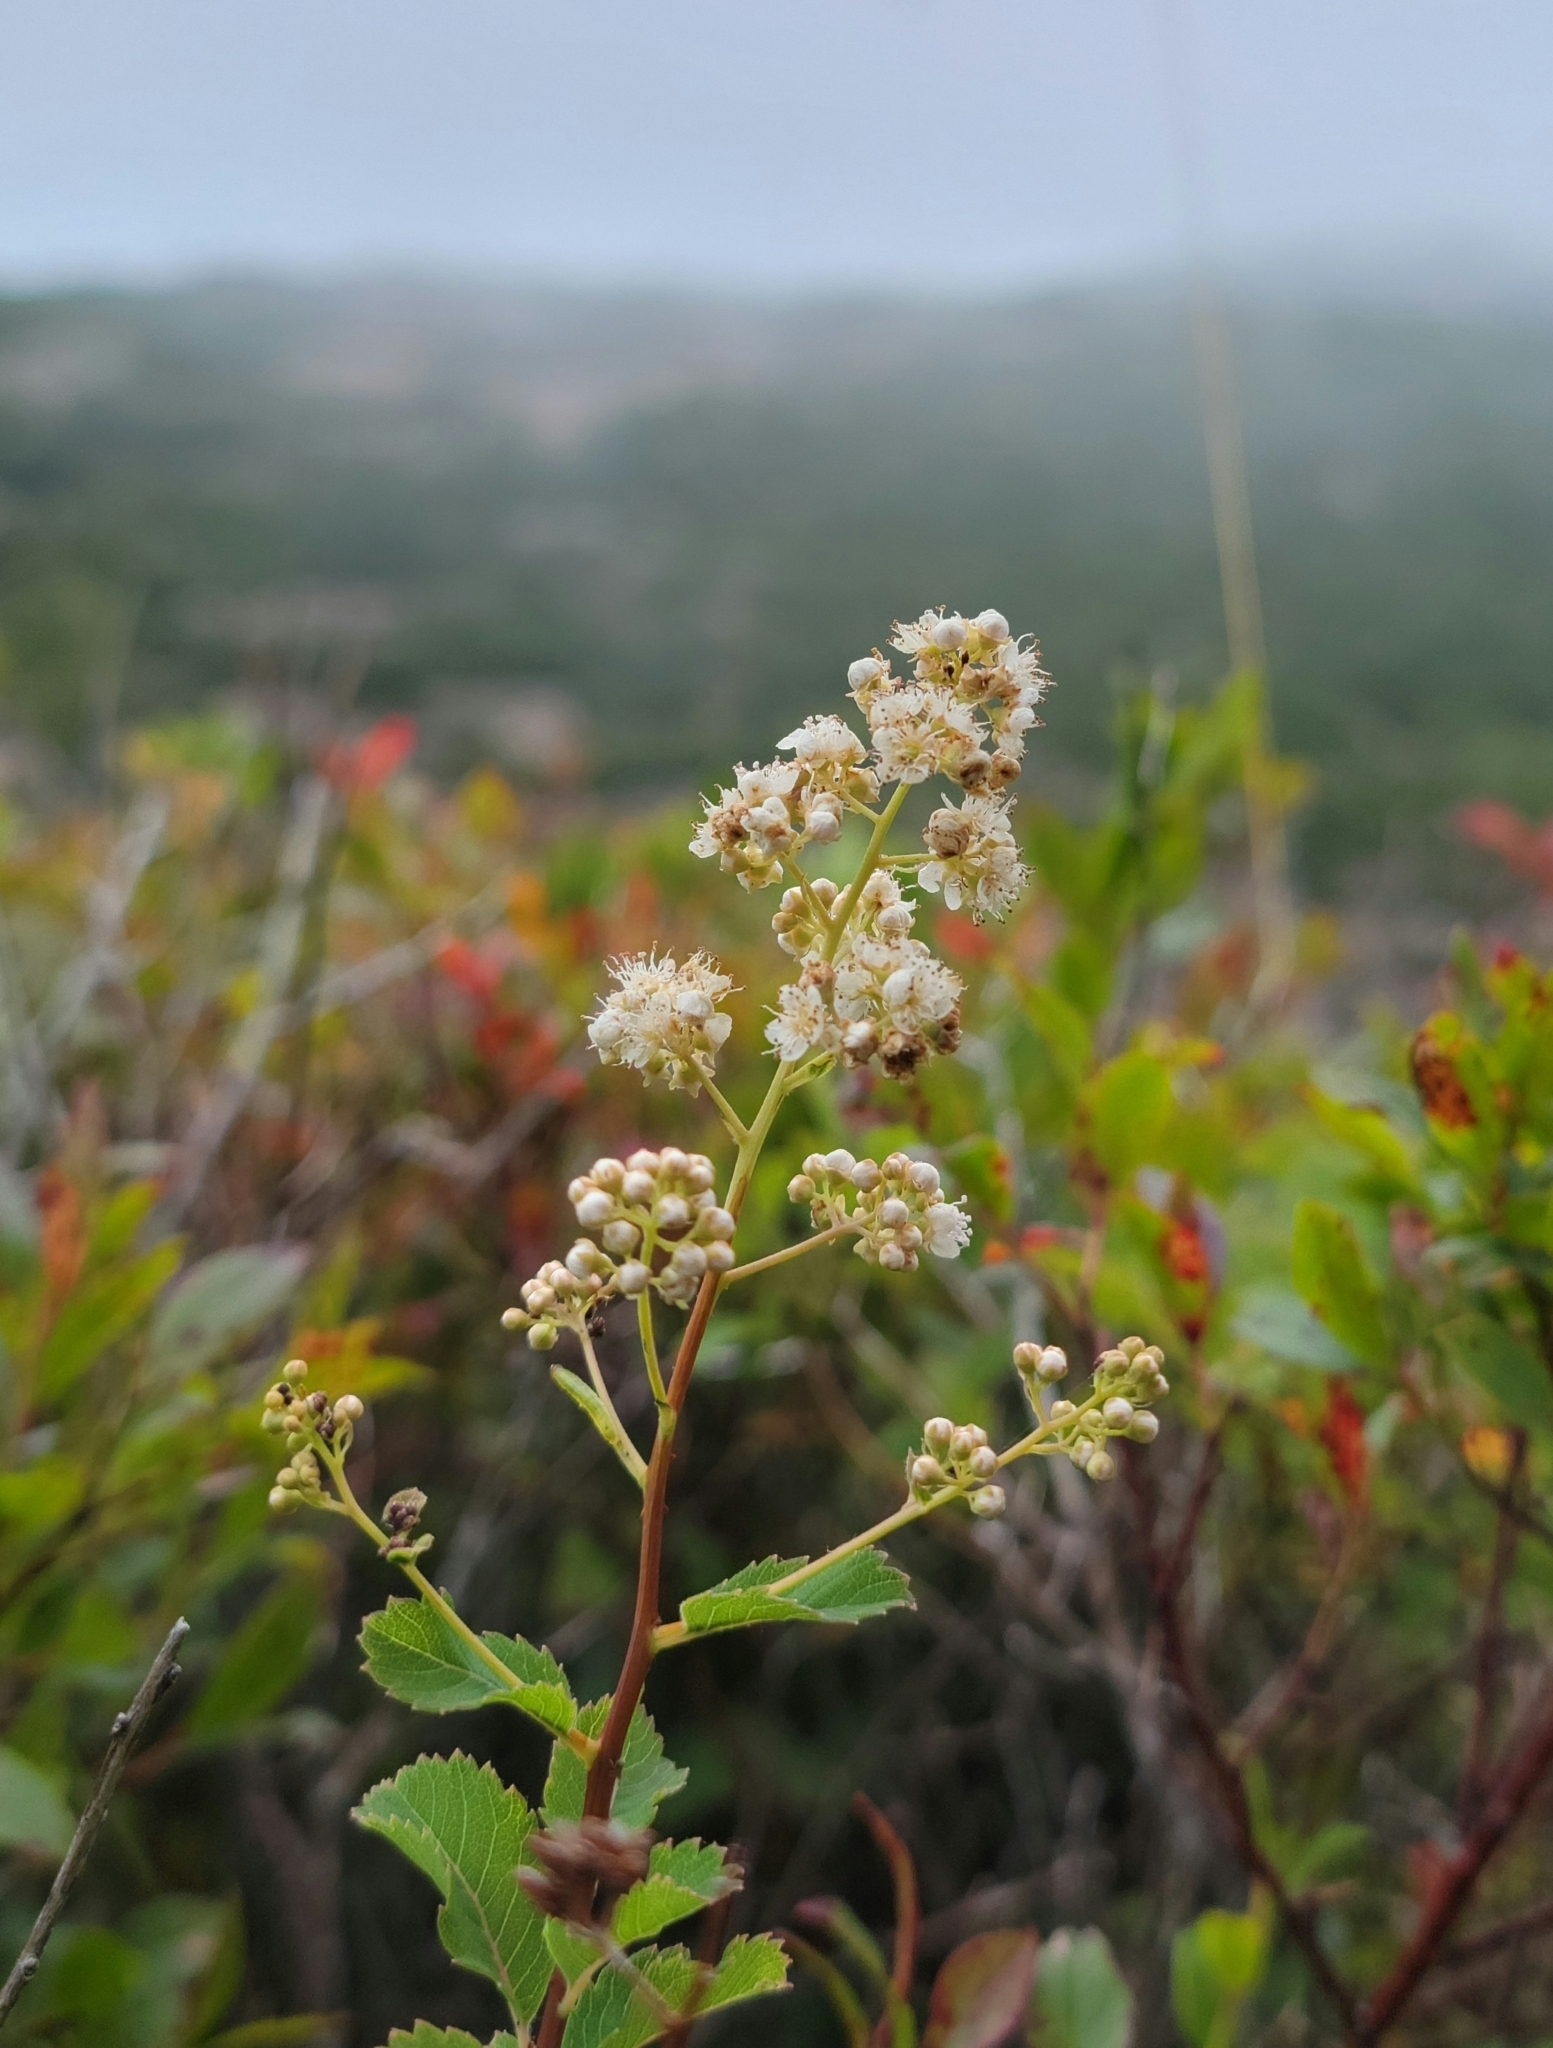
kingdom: Plantae
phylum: Tracheophyta
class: Magnoliopsida
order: Rosales
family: Rosaceae
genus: Spiraea
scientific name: Spiraea alba
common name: Pale bridewort
